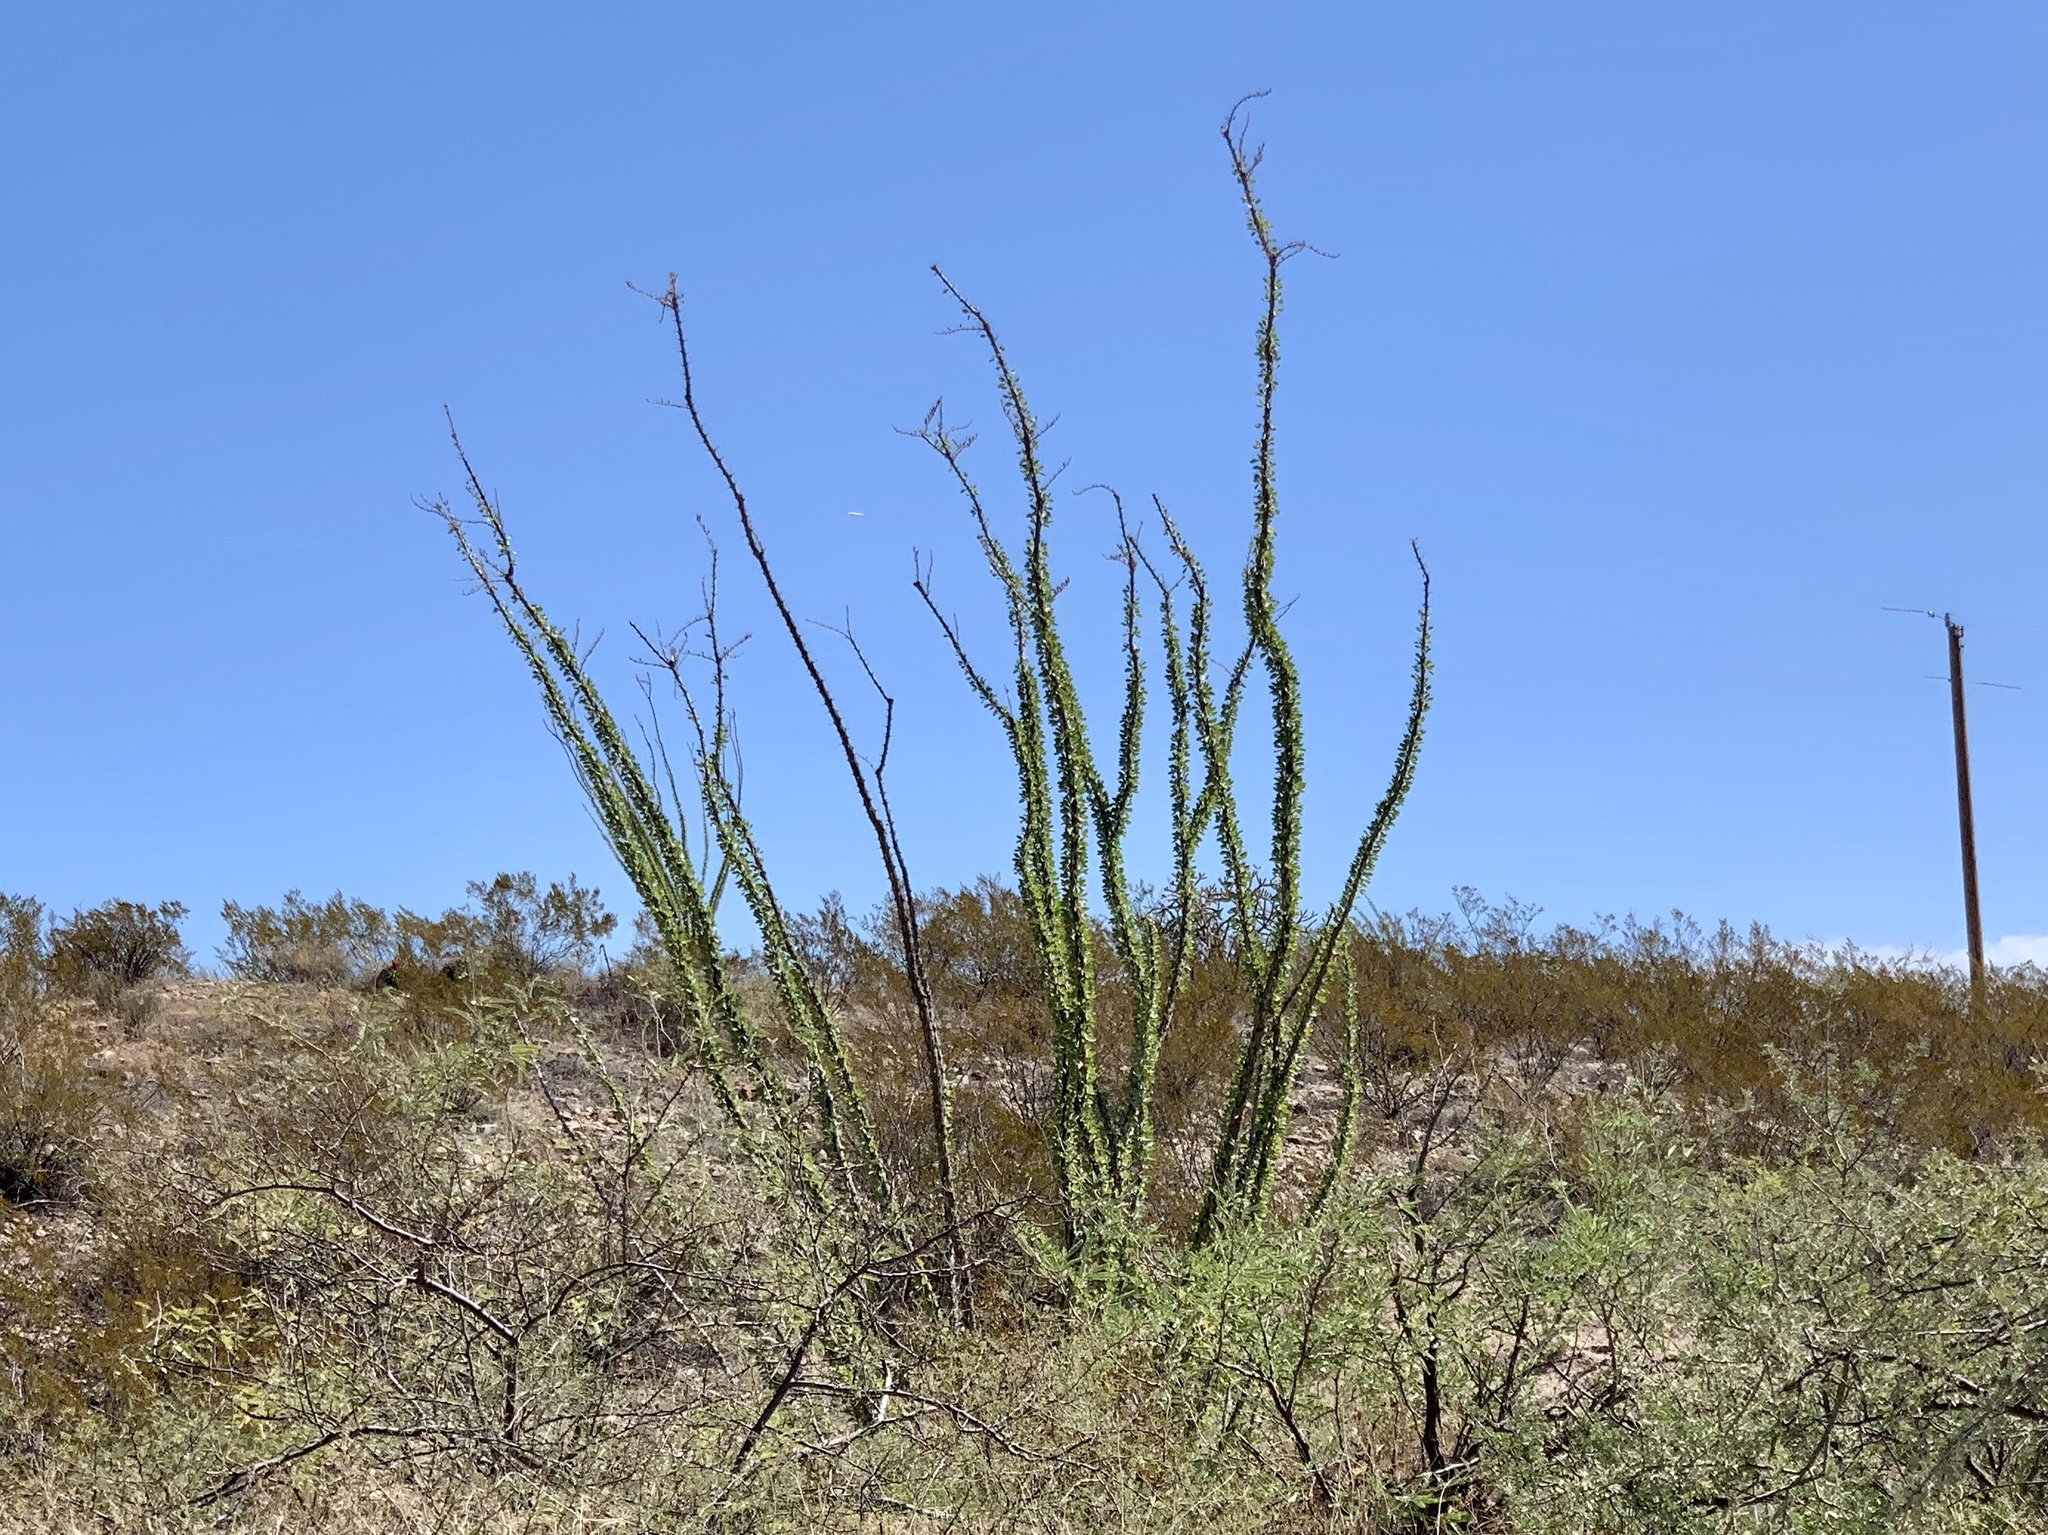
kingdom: Plantae
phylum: Tracheophyta
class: Magnoliopsida
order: Ericales
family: Fouquieriaceae
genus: Fouquieria
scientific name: Fouquieria splendens
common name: Vine-cactus
